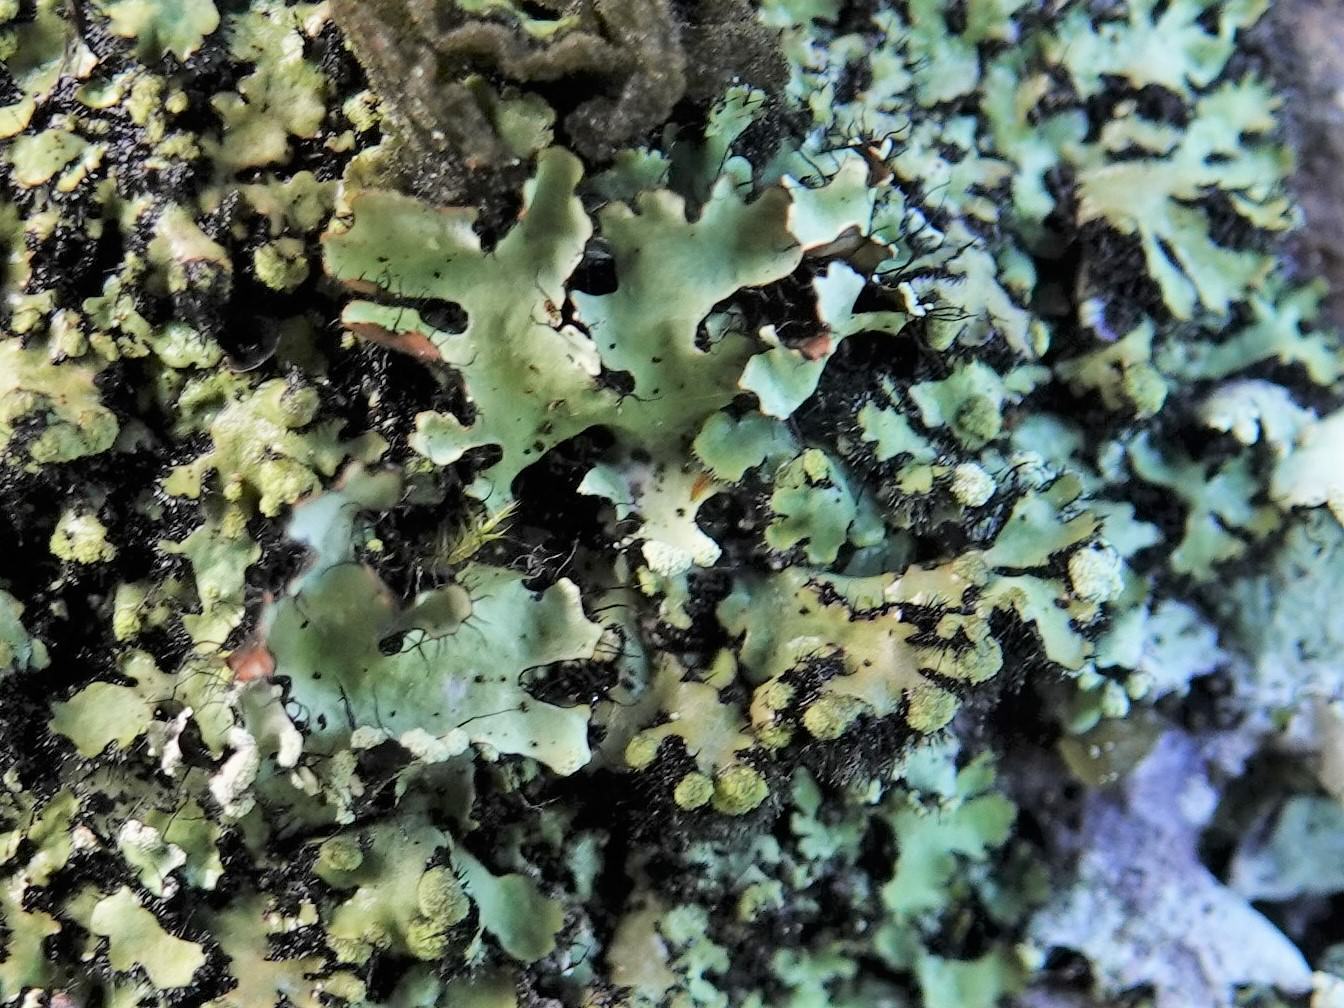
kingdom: Fungi
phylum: Ascomycota
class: Lecanoromycetes
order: Caliciales
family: Physciaceae
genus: Phaeophyscia
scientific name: Phaeophyscia orbicularis
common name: Mealy shadow lichen
